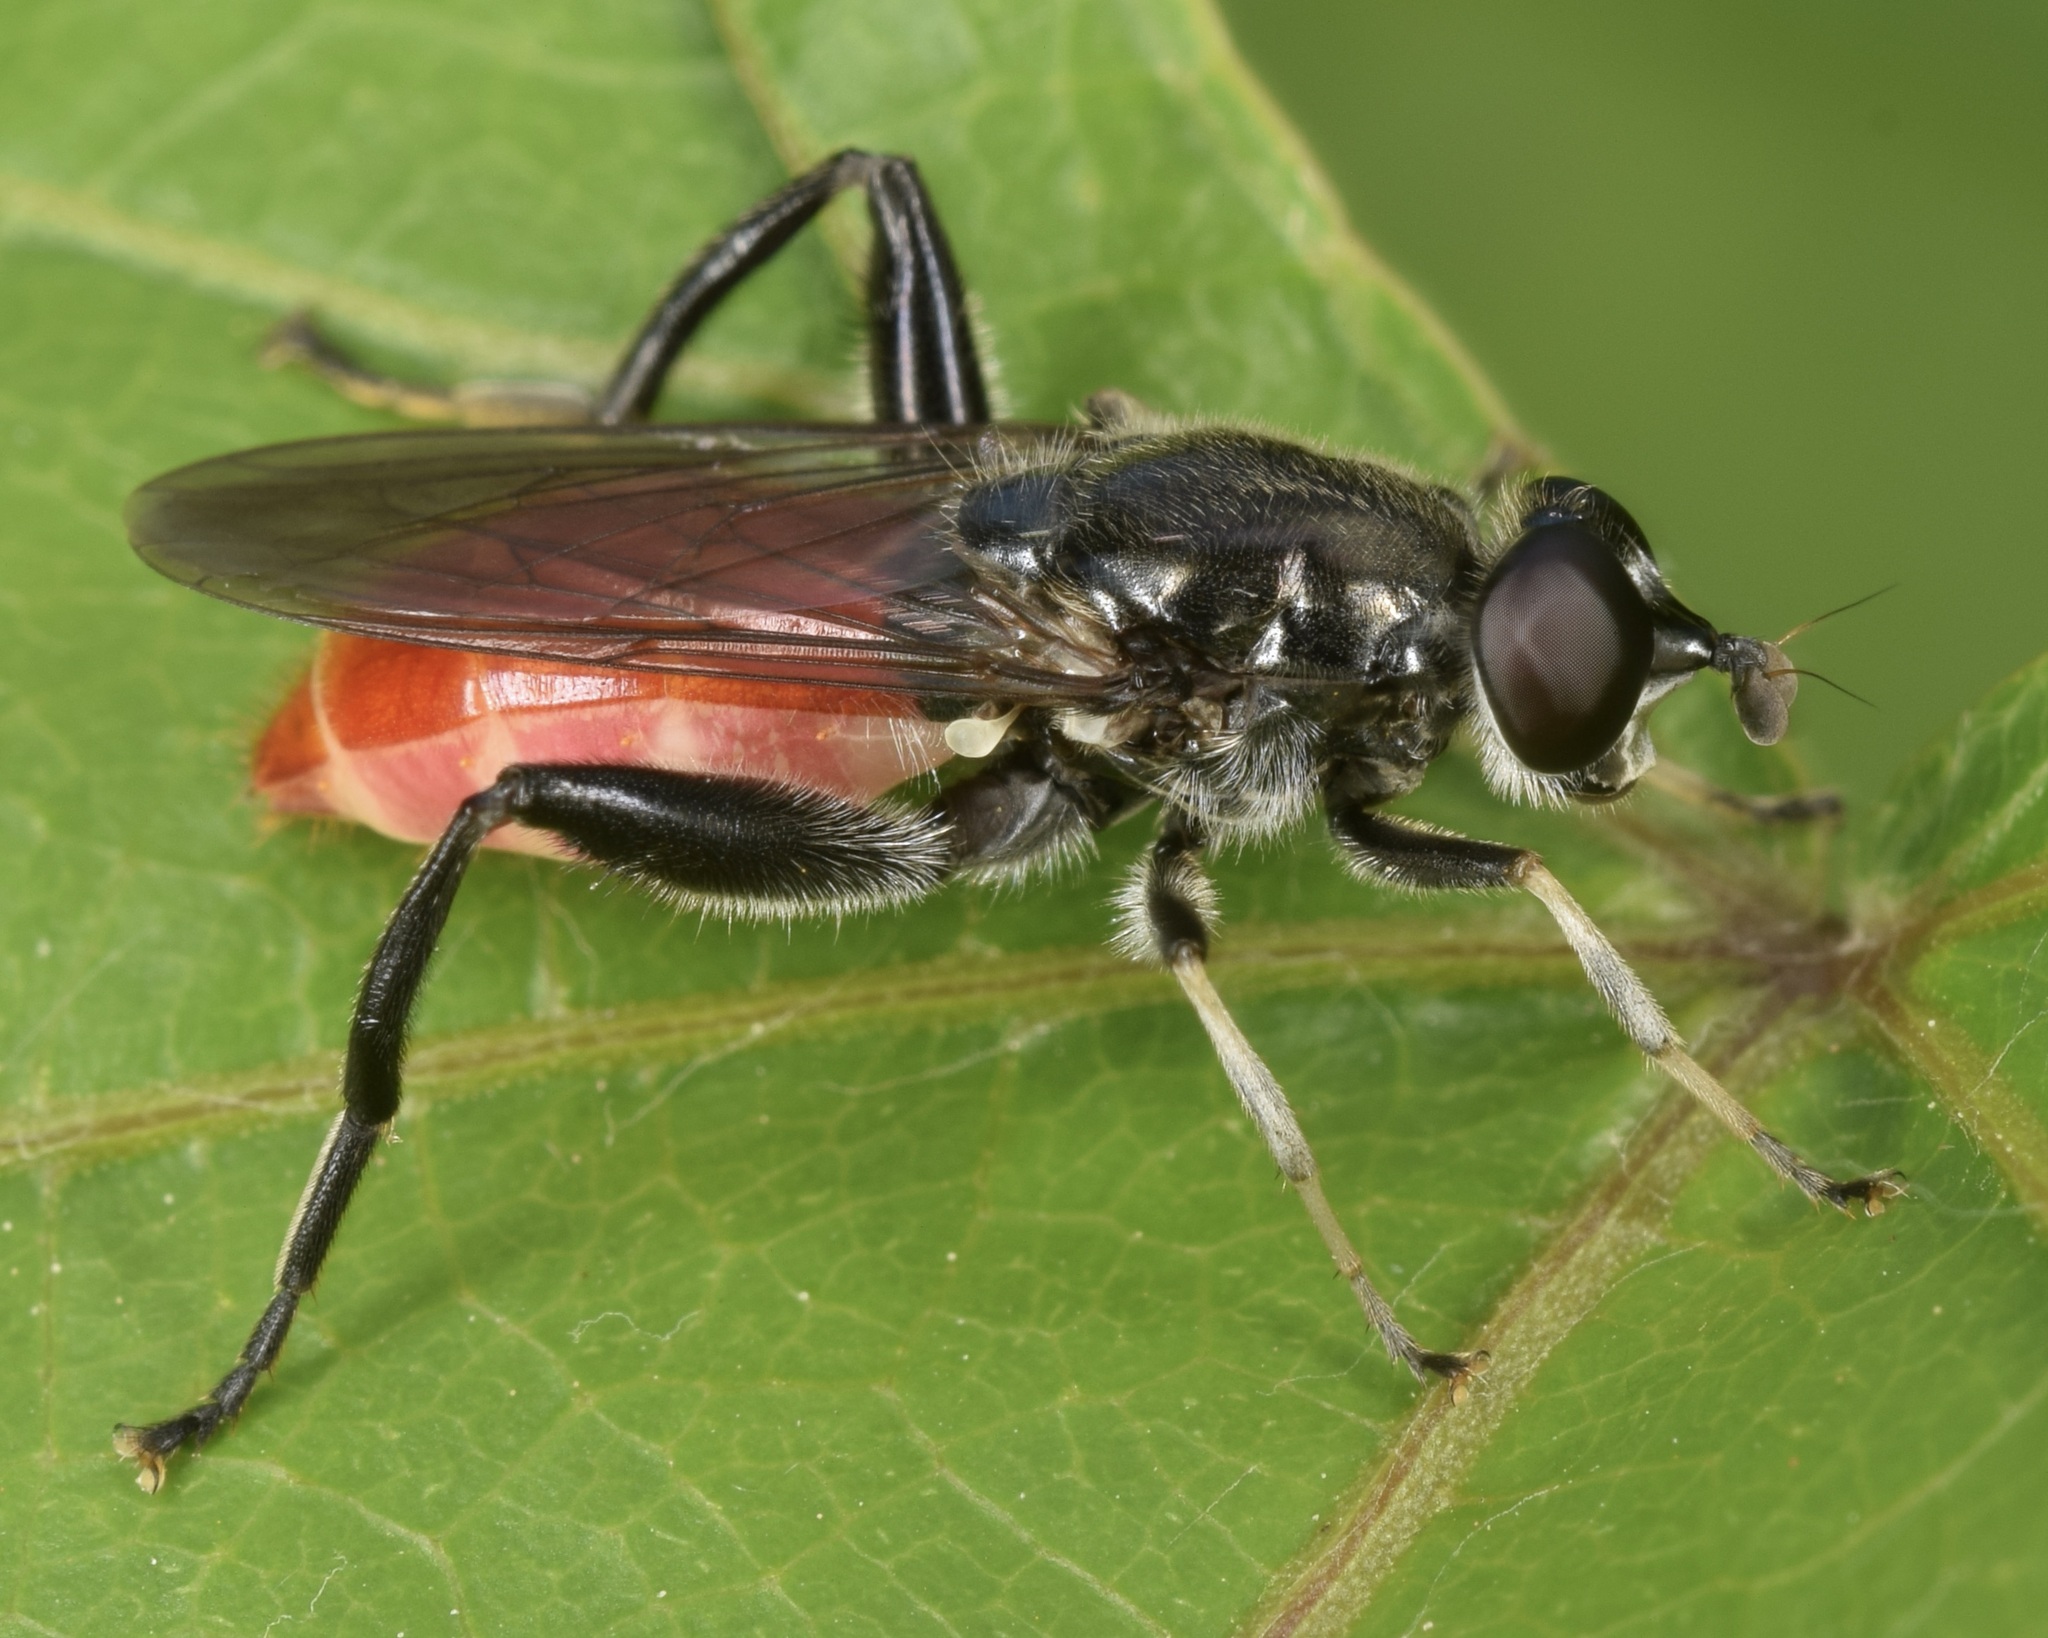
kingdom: Animalia
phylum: Arthropoda
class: Insecta
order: Diptera
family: Syrphidae
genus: Brachypalpoides
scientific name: Brachypalpoides bicolor
